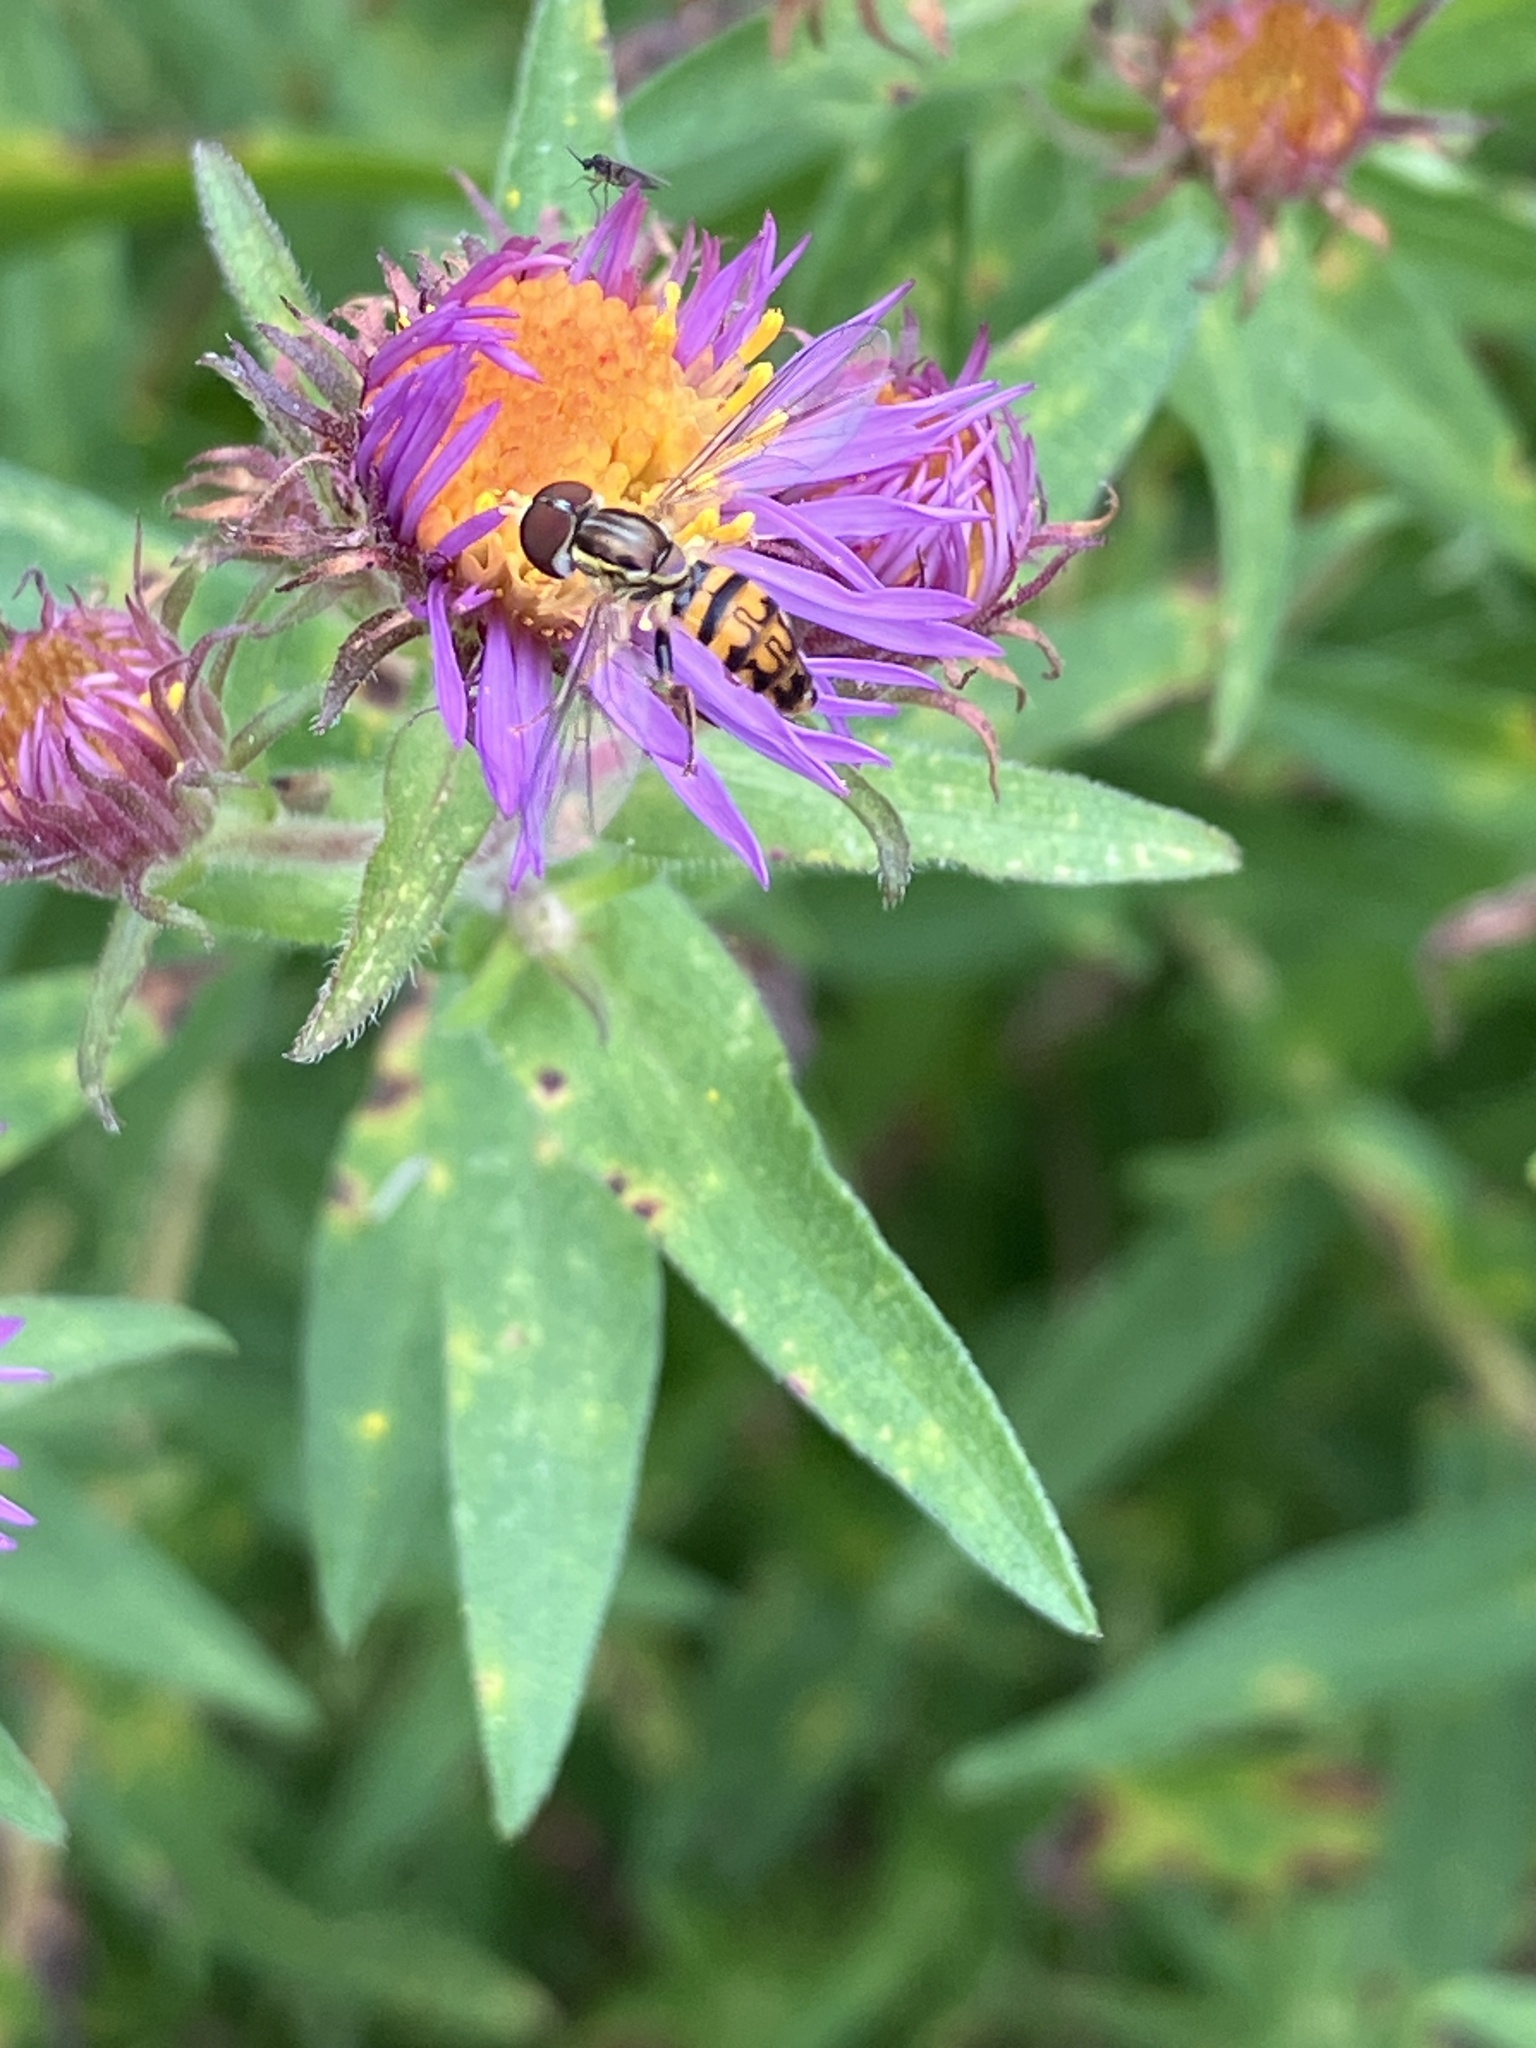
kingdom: Animalia
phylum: Arthropoda
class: Insecta
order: Diptera
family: Syrphidae
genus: Toxomerus
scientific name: Toxomerus geminatus
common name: Eastern calligrapher
